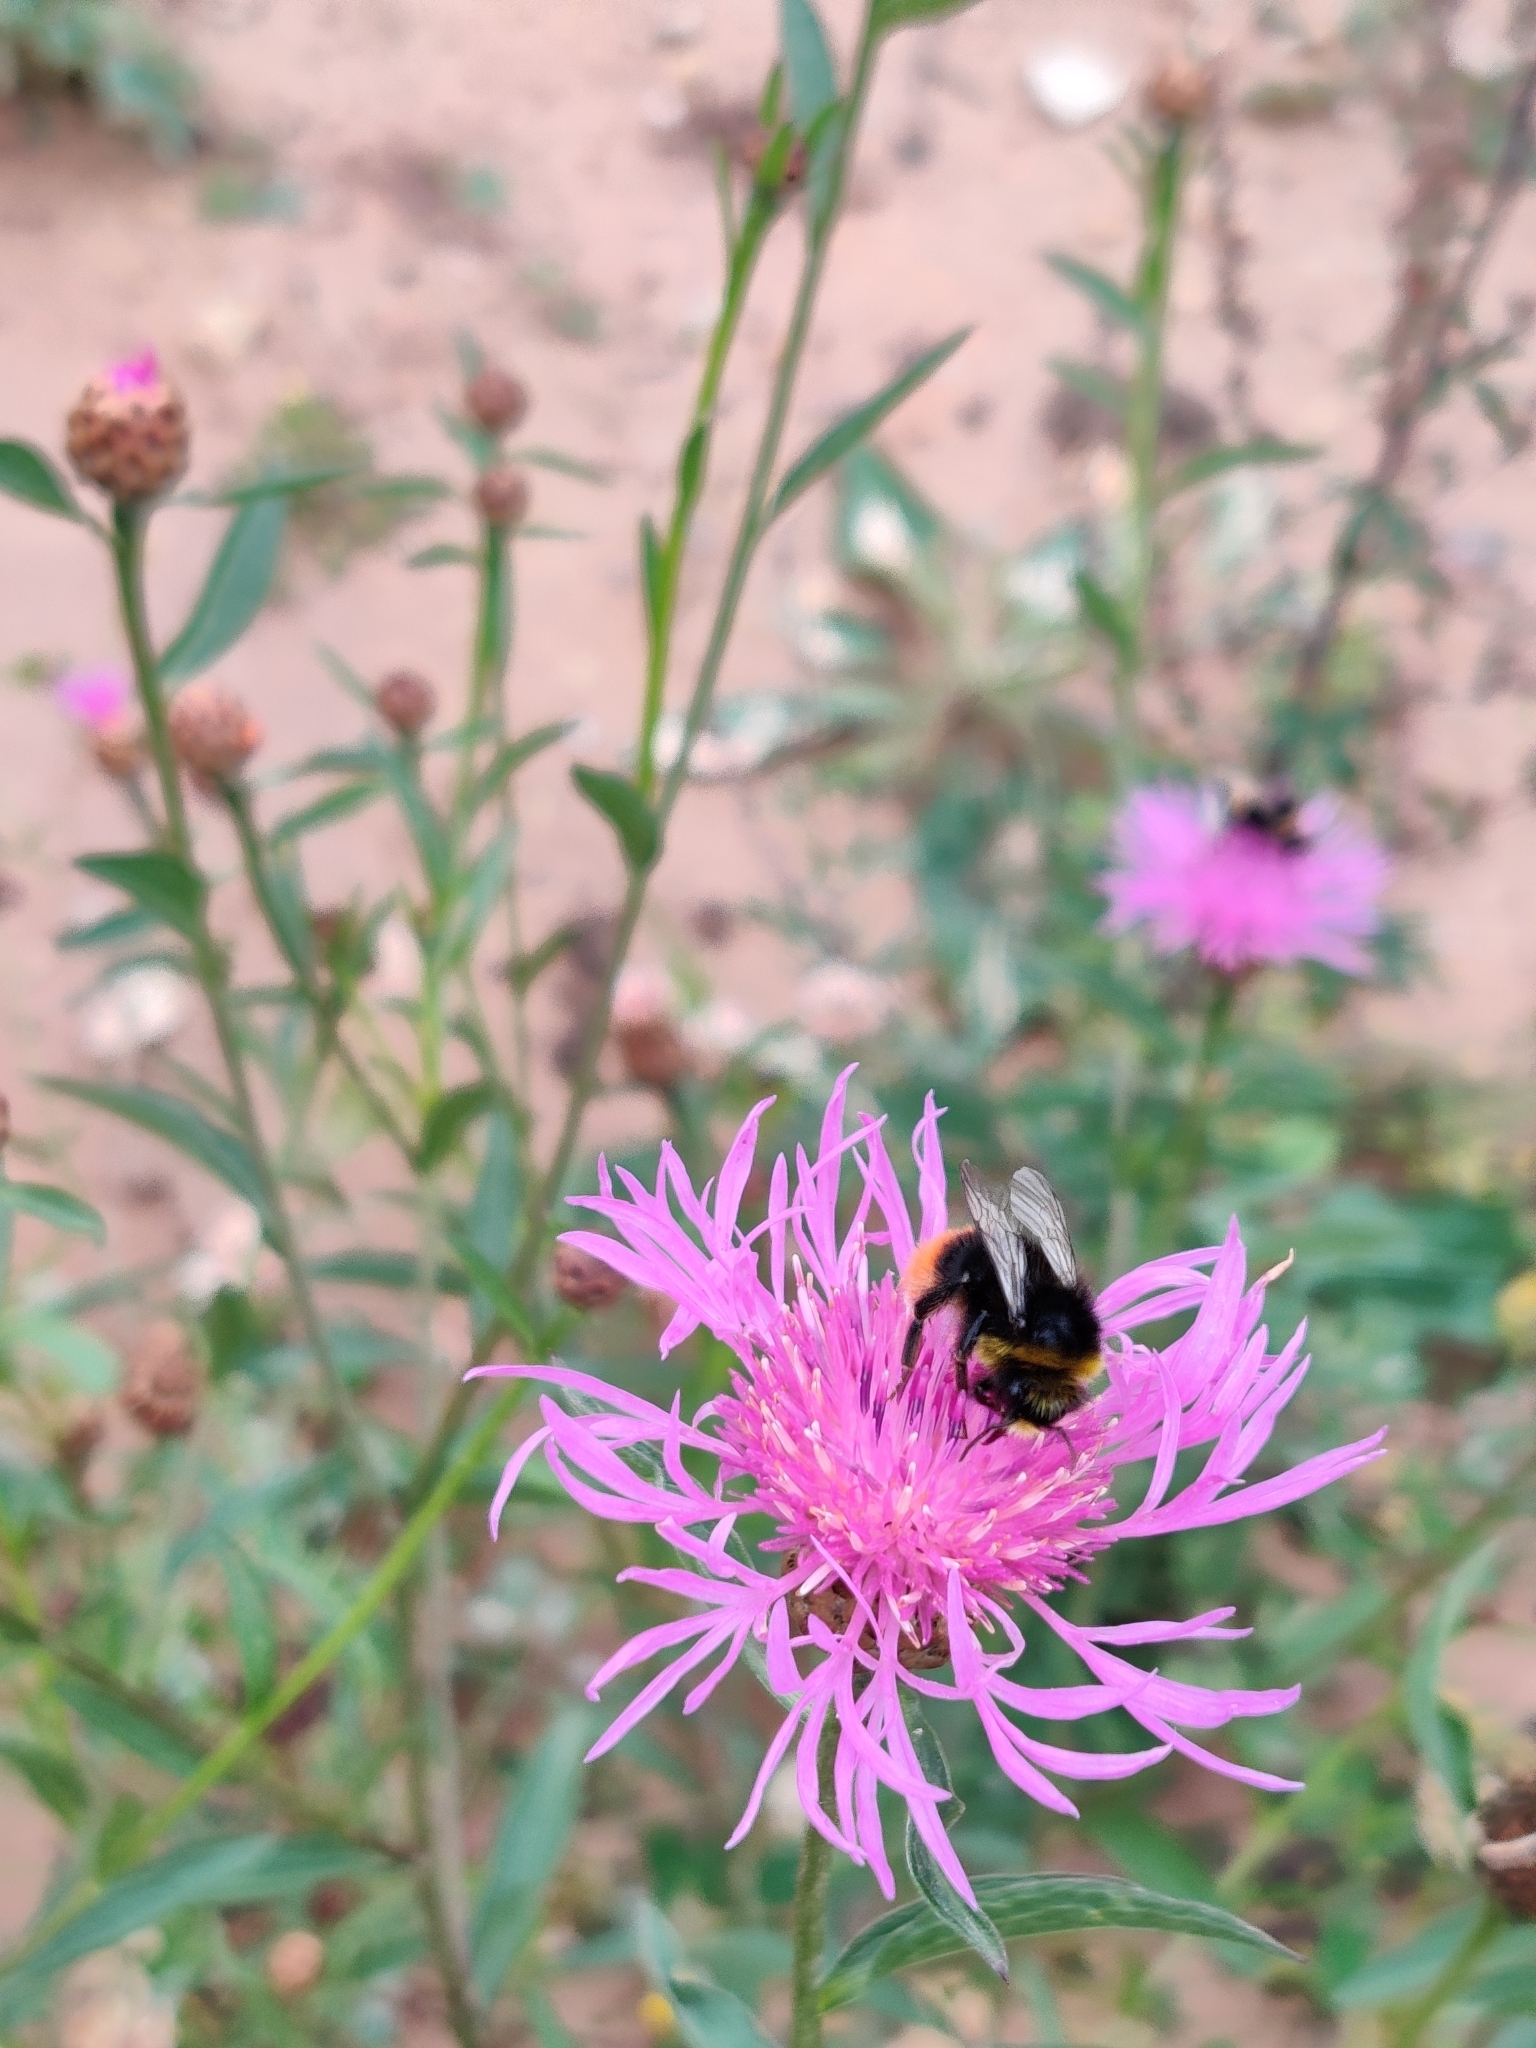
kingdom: Animalia
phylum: Arthropoda
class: Insecta
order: Hymenoptera
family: Apidae
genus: Bombus
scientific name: Bombus lapidarius
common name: Large red-tailed humble-bee
